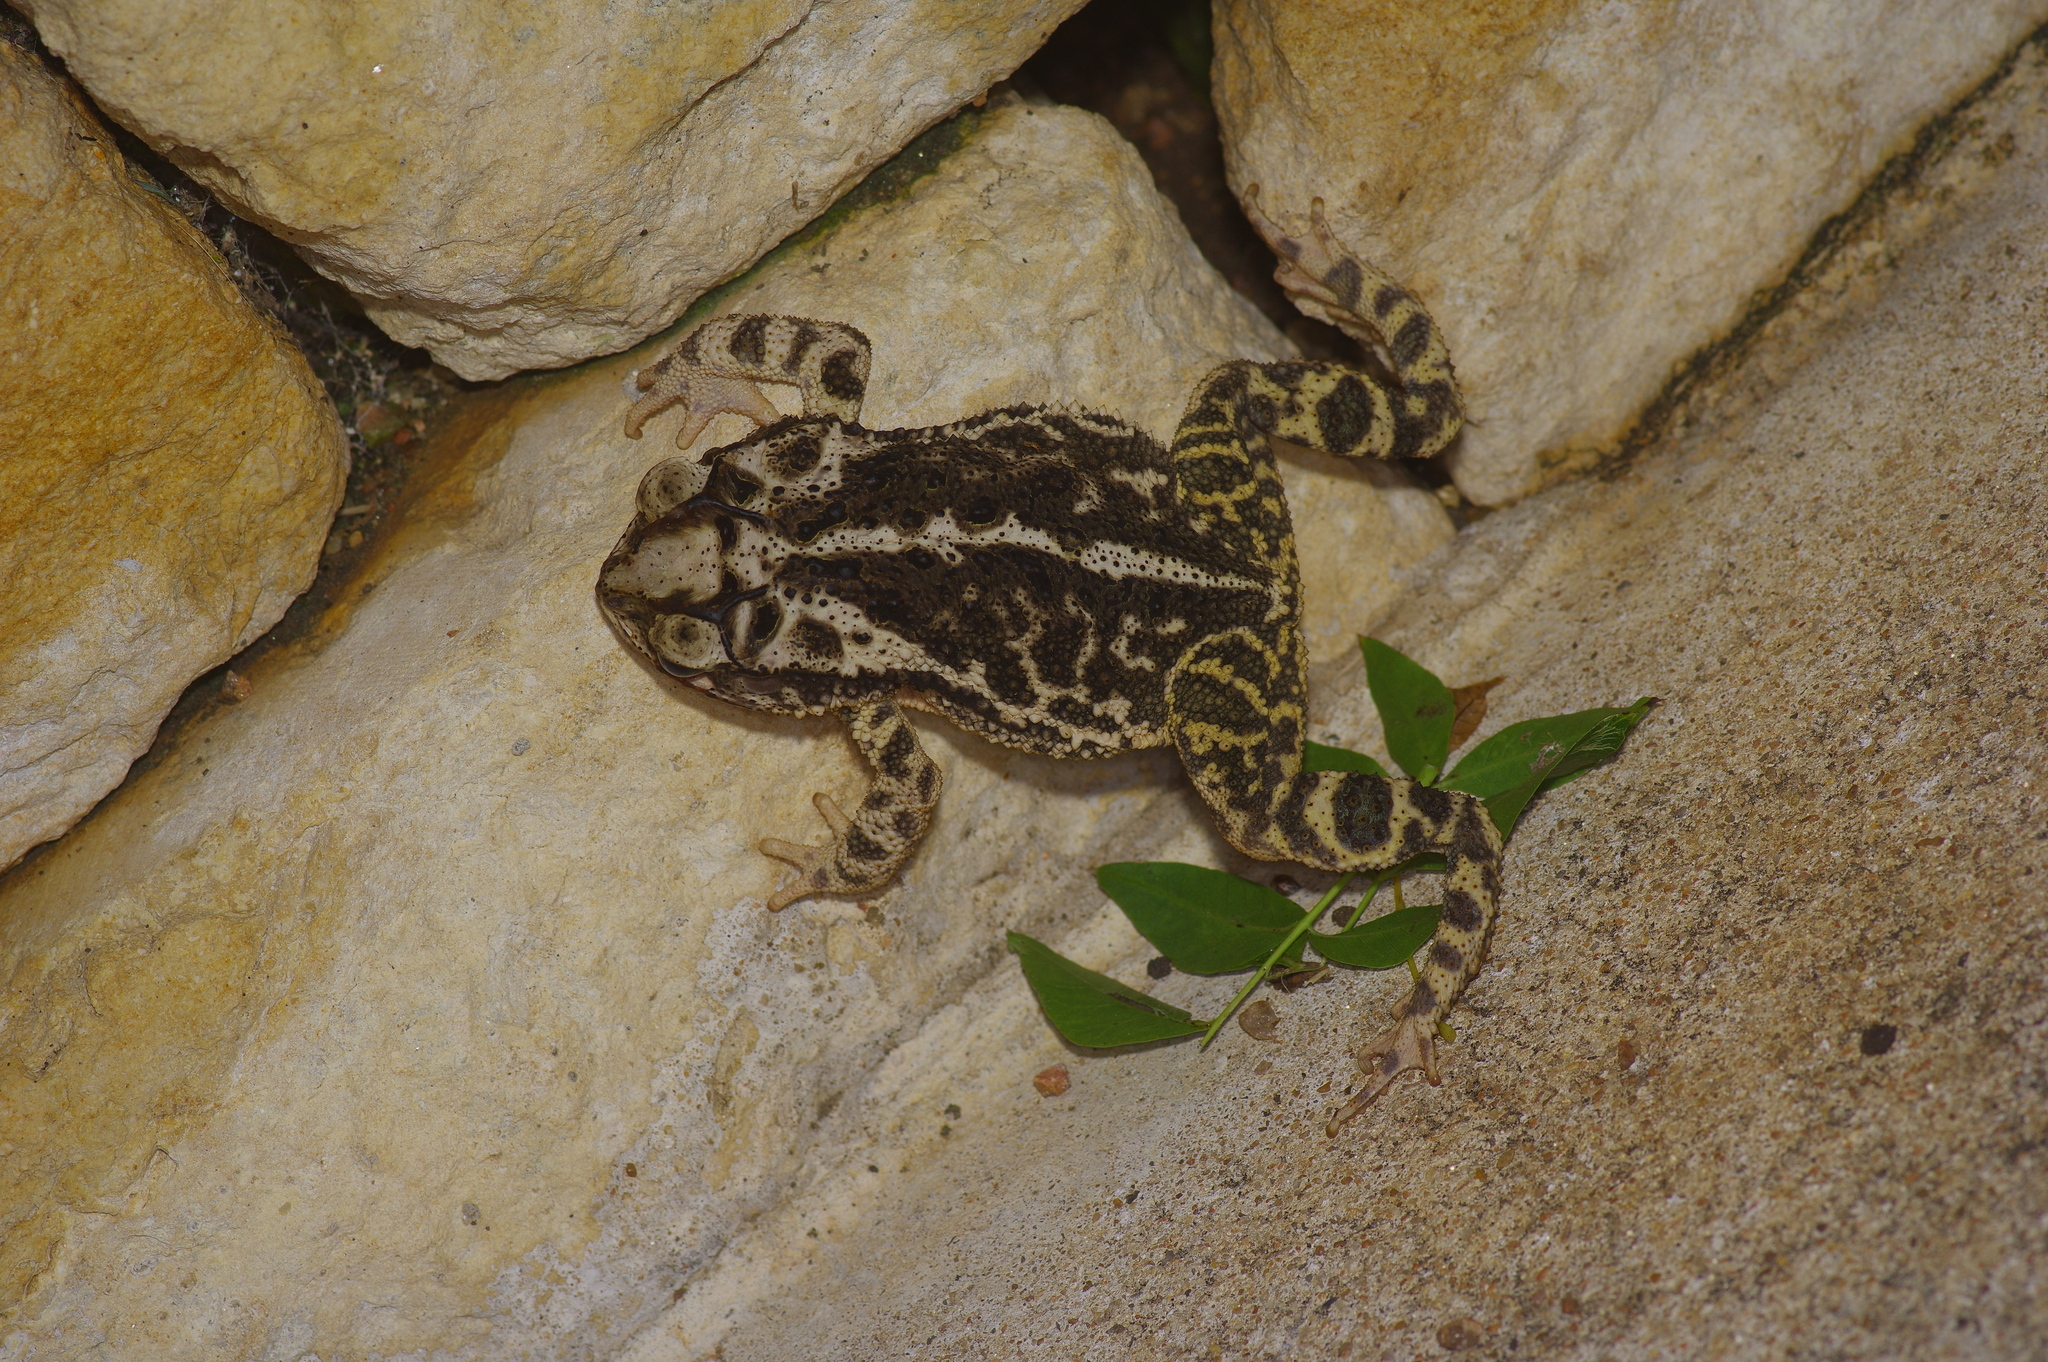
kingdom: Animalia
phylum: Chordata
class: Amphibia
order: Anura
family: Bufonidae
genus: Incilius
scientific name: Incilius nebulifer
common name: Gulf coast toad
